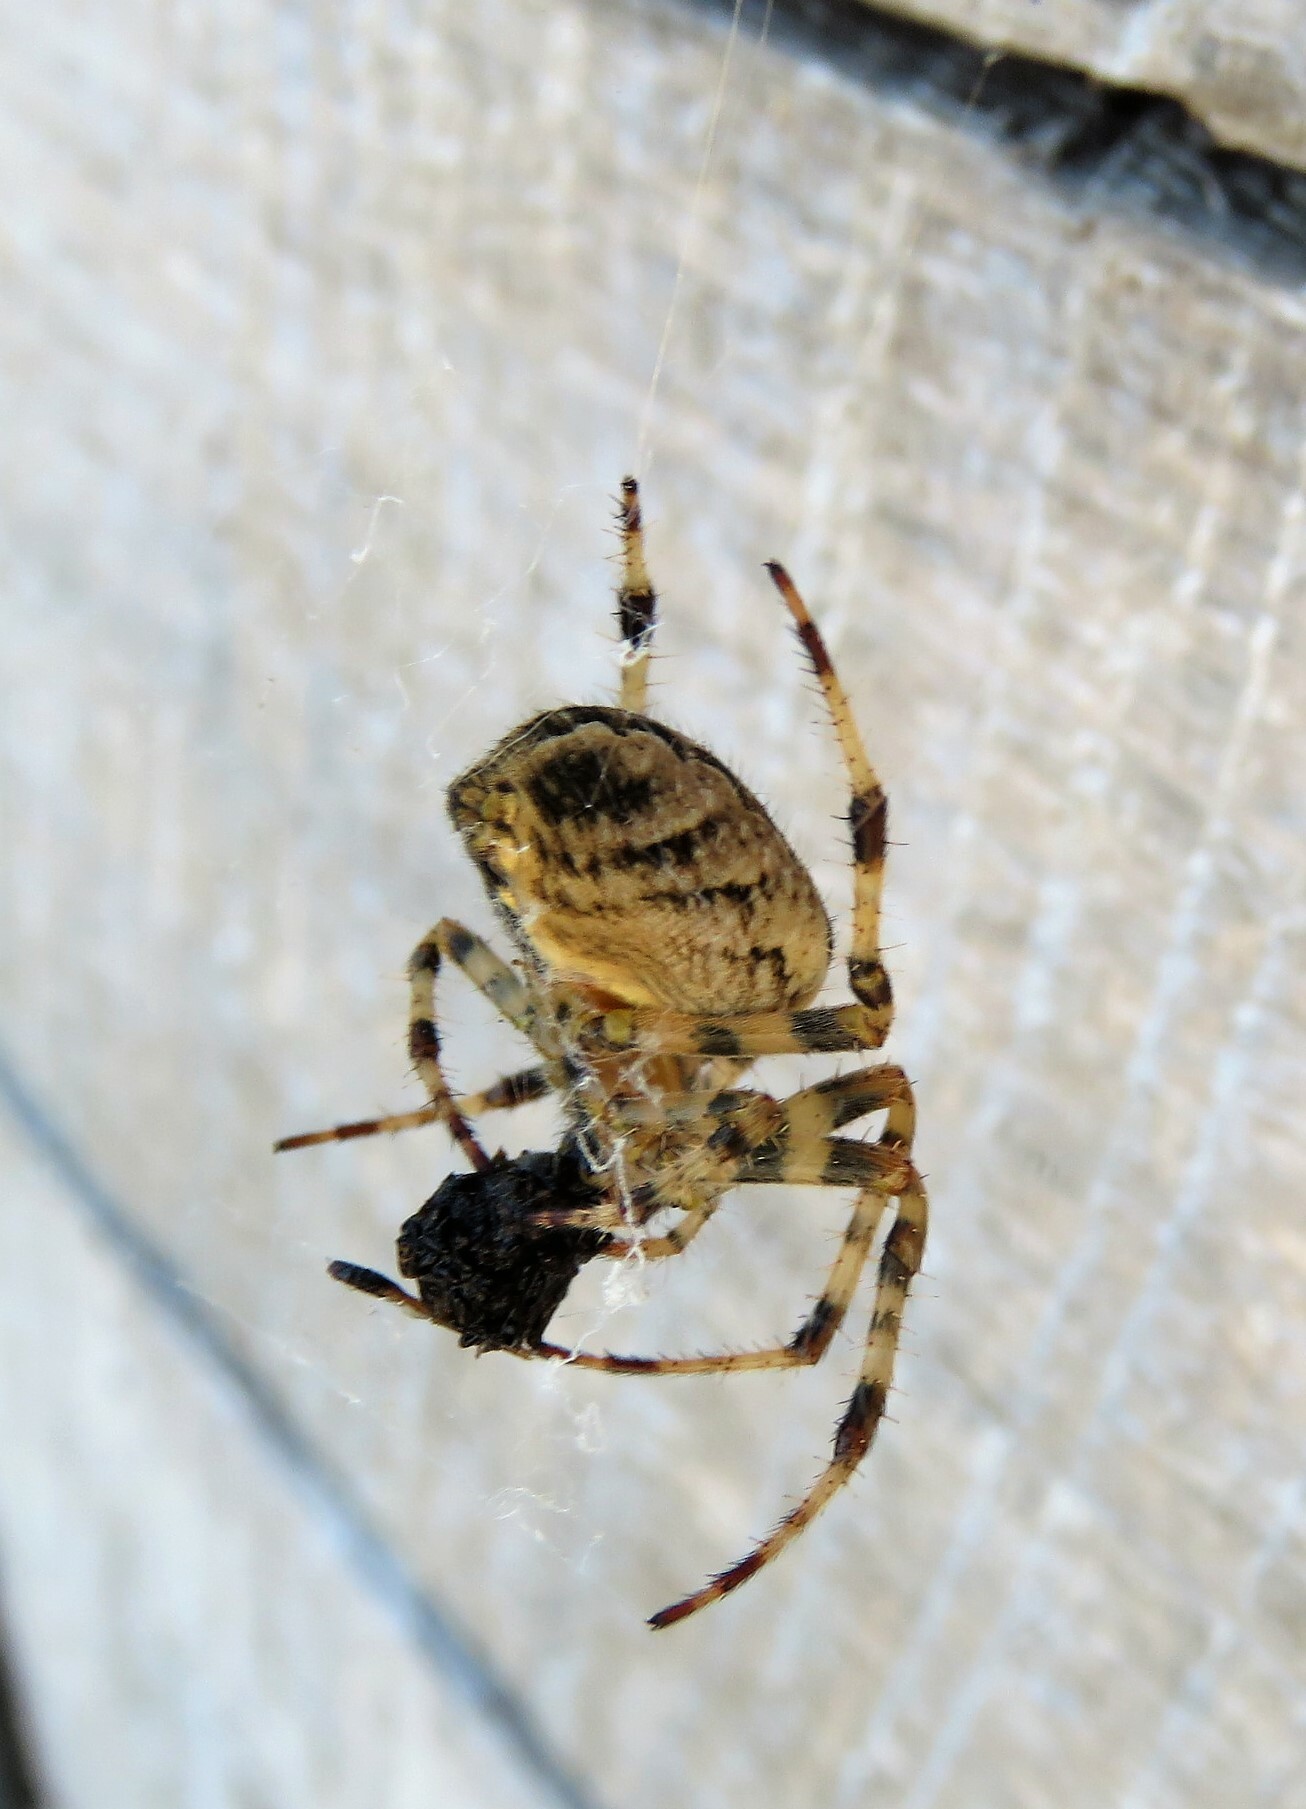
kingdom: Animalia
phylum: Arthropoda
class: Arachnida
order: Araneae
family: Araneidae
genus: Araneus
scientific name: Araneus diadematus
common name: Cross orbweaver
